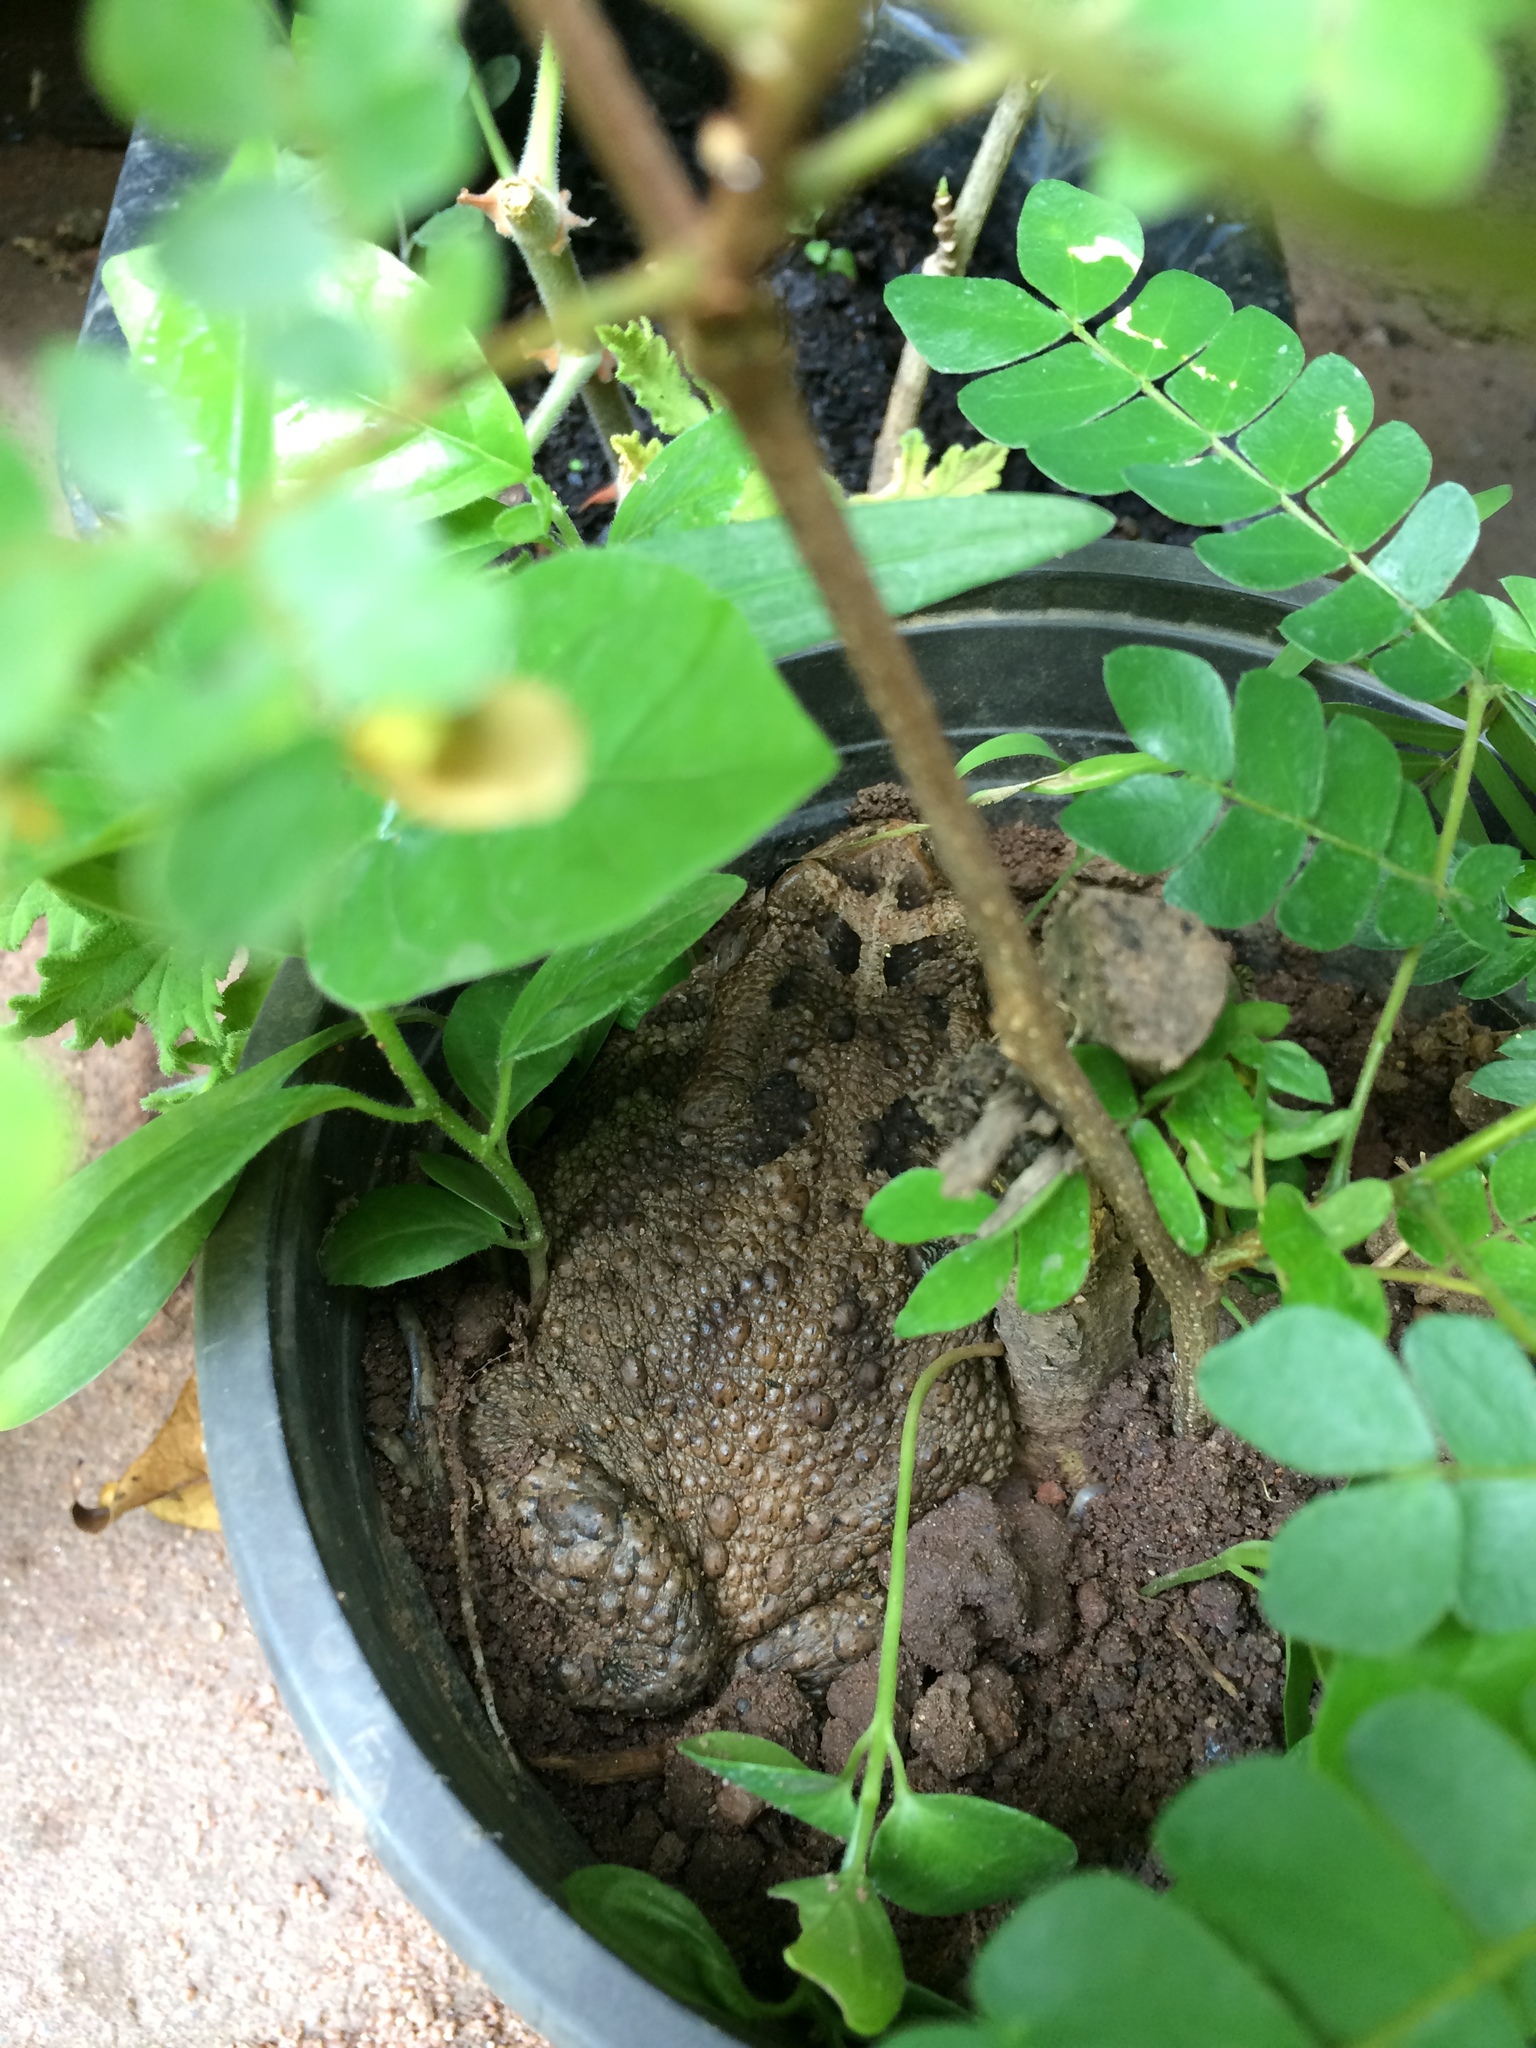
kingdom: Animalia
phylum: Chordata
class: Amphibia
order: Anura
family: Bufonidae
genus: Sclerophrys
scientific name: Sclerophrys gutturalis
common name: African common toad
